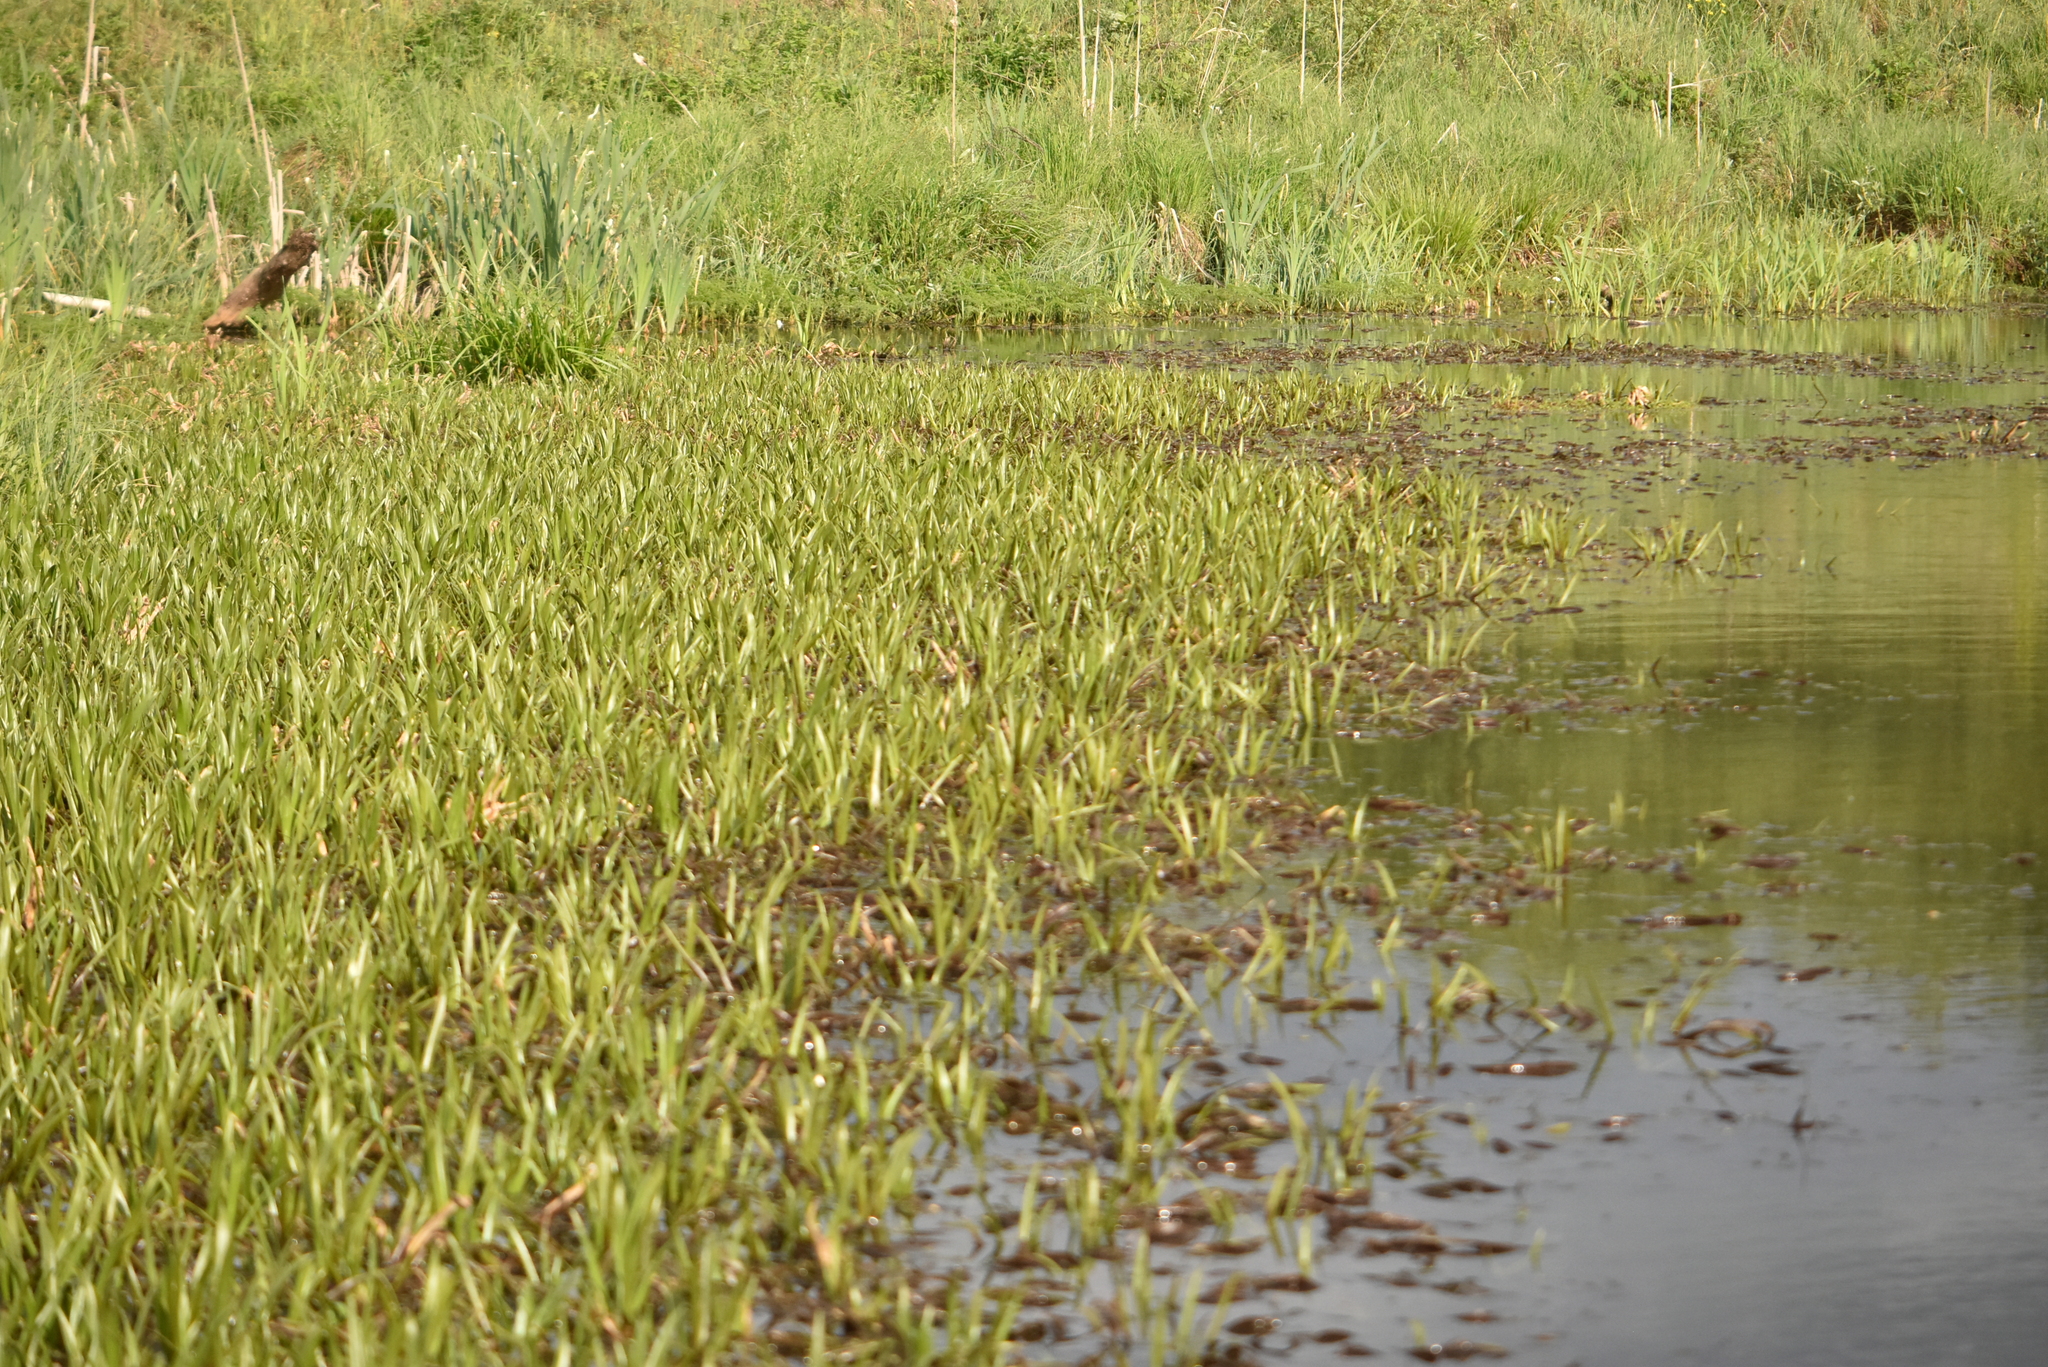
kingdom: Plantae
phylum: Tracheophyta
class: Liliopsida
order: Alismatales
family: Hydrocharitaceae
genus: Stratiotes
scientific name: Stratiotes aloides
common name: Water-soldier
